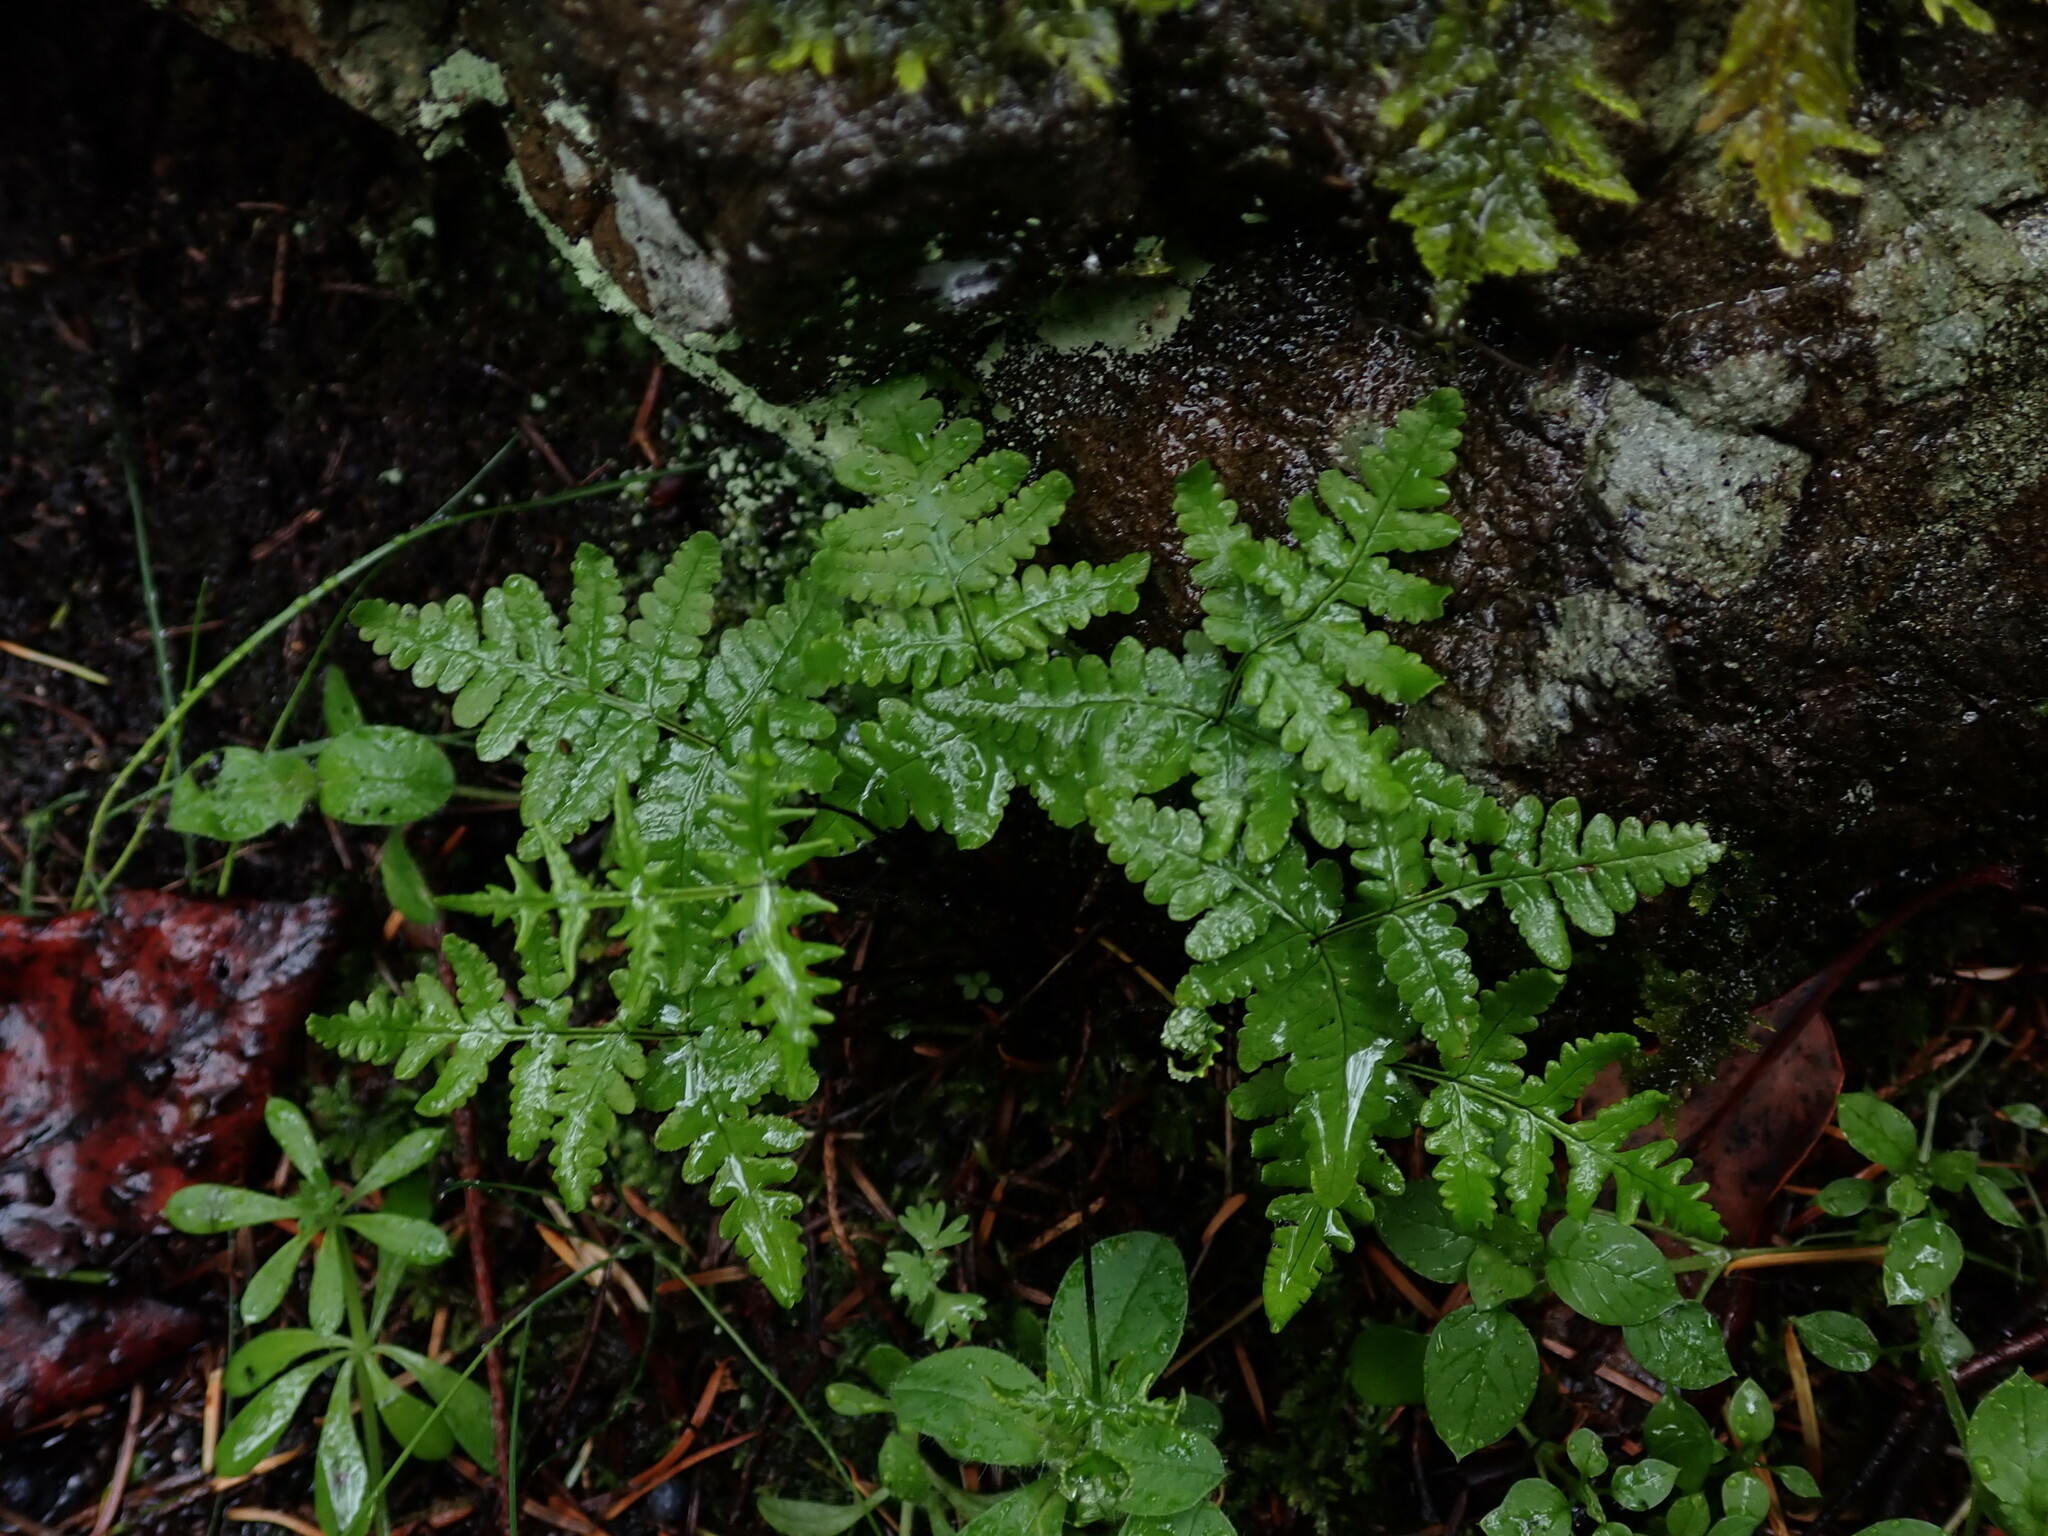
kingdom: Plantae
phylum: Tracheophyta
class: Polypodiopsida
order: Polypodiales
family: Pteridaceae
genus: Pentagramma
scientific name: Pentagramma triangularis
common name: Gold fern
